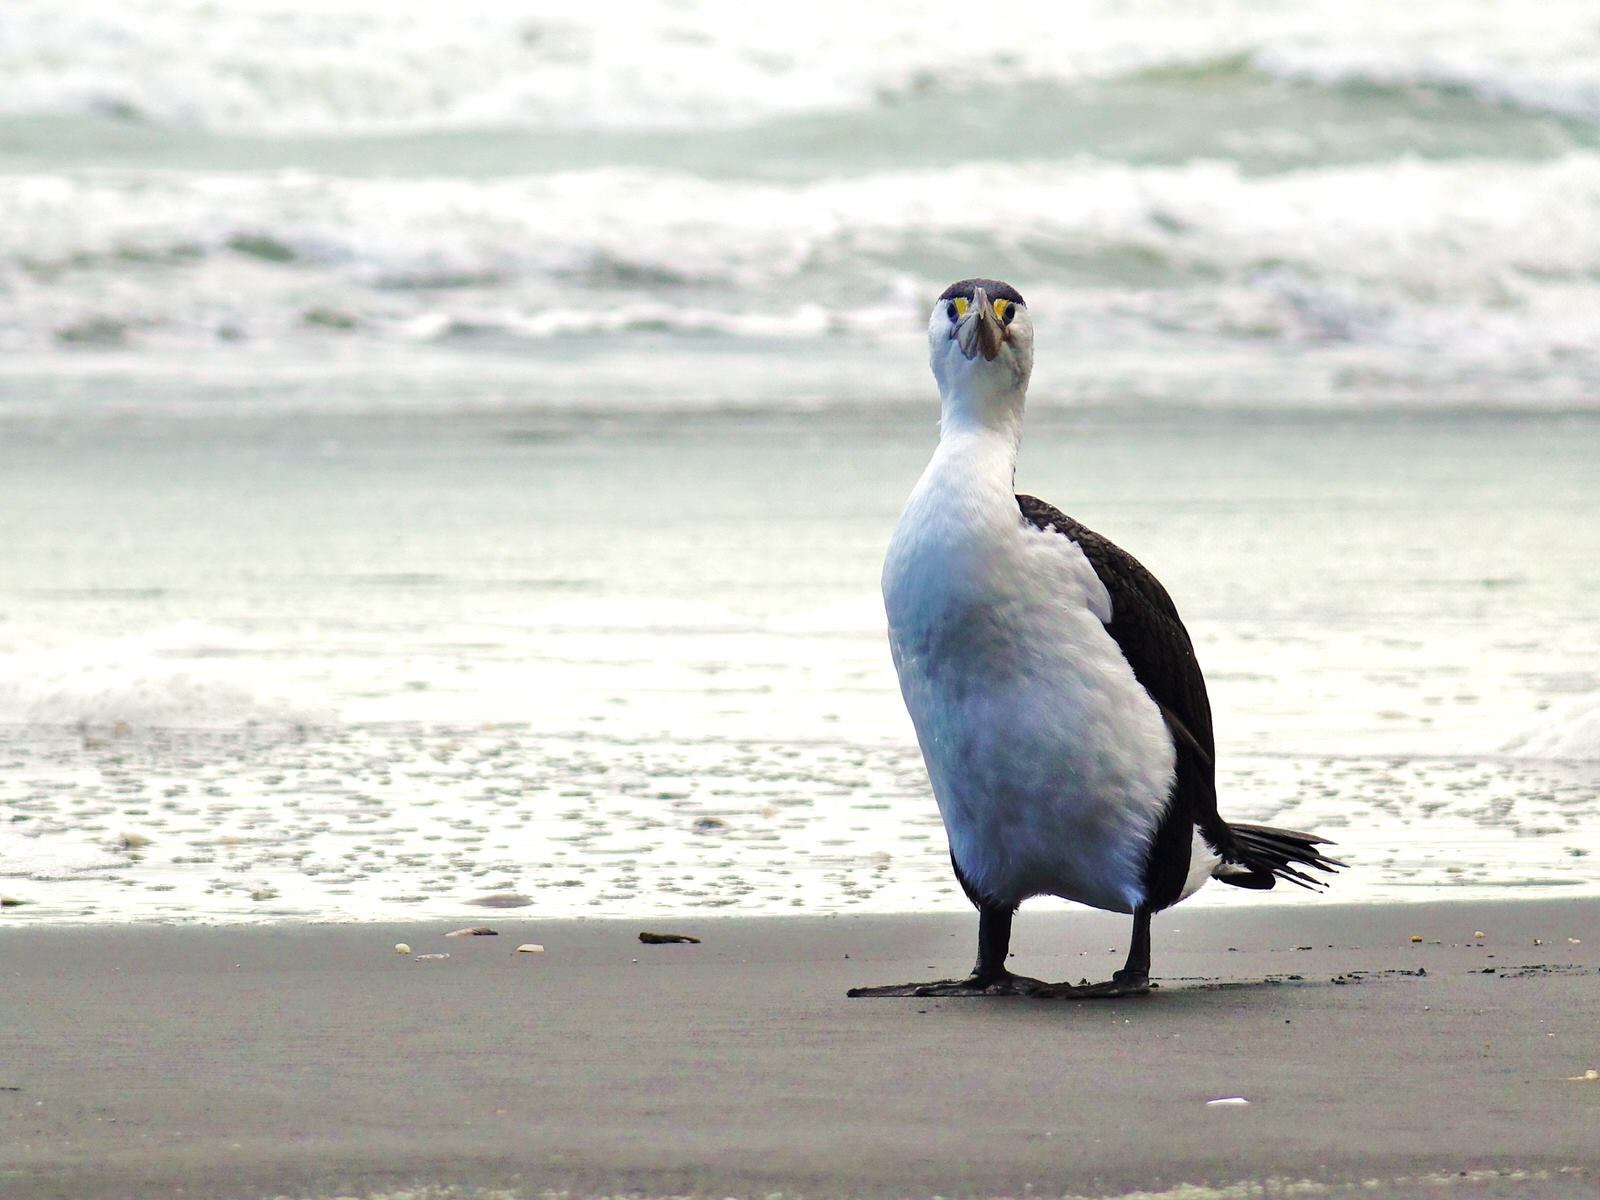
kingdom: Animalia
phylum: Chordata
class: Aves
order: Suliformes
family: Phalacrocoracidae
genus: Phalacrocorax
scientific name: Phalacrocorax varius
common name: Pied cormorant
